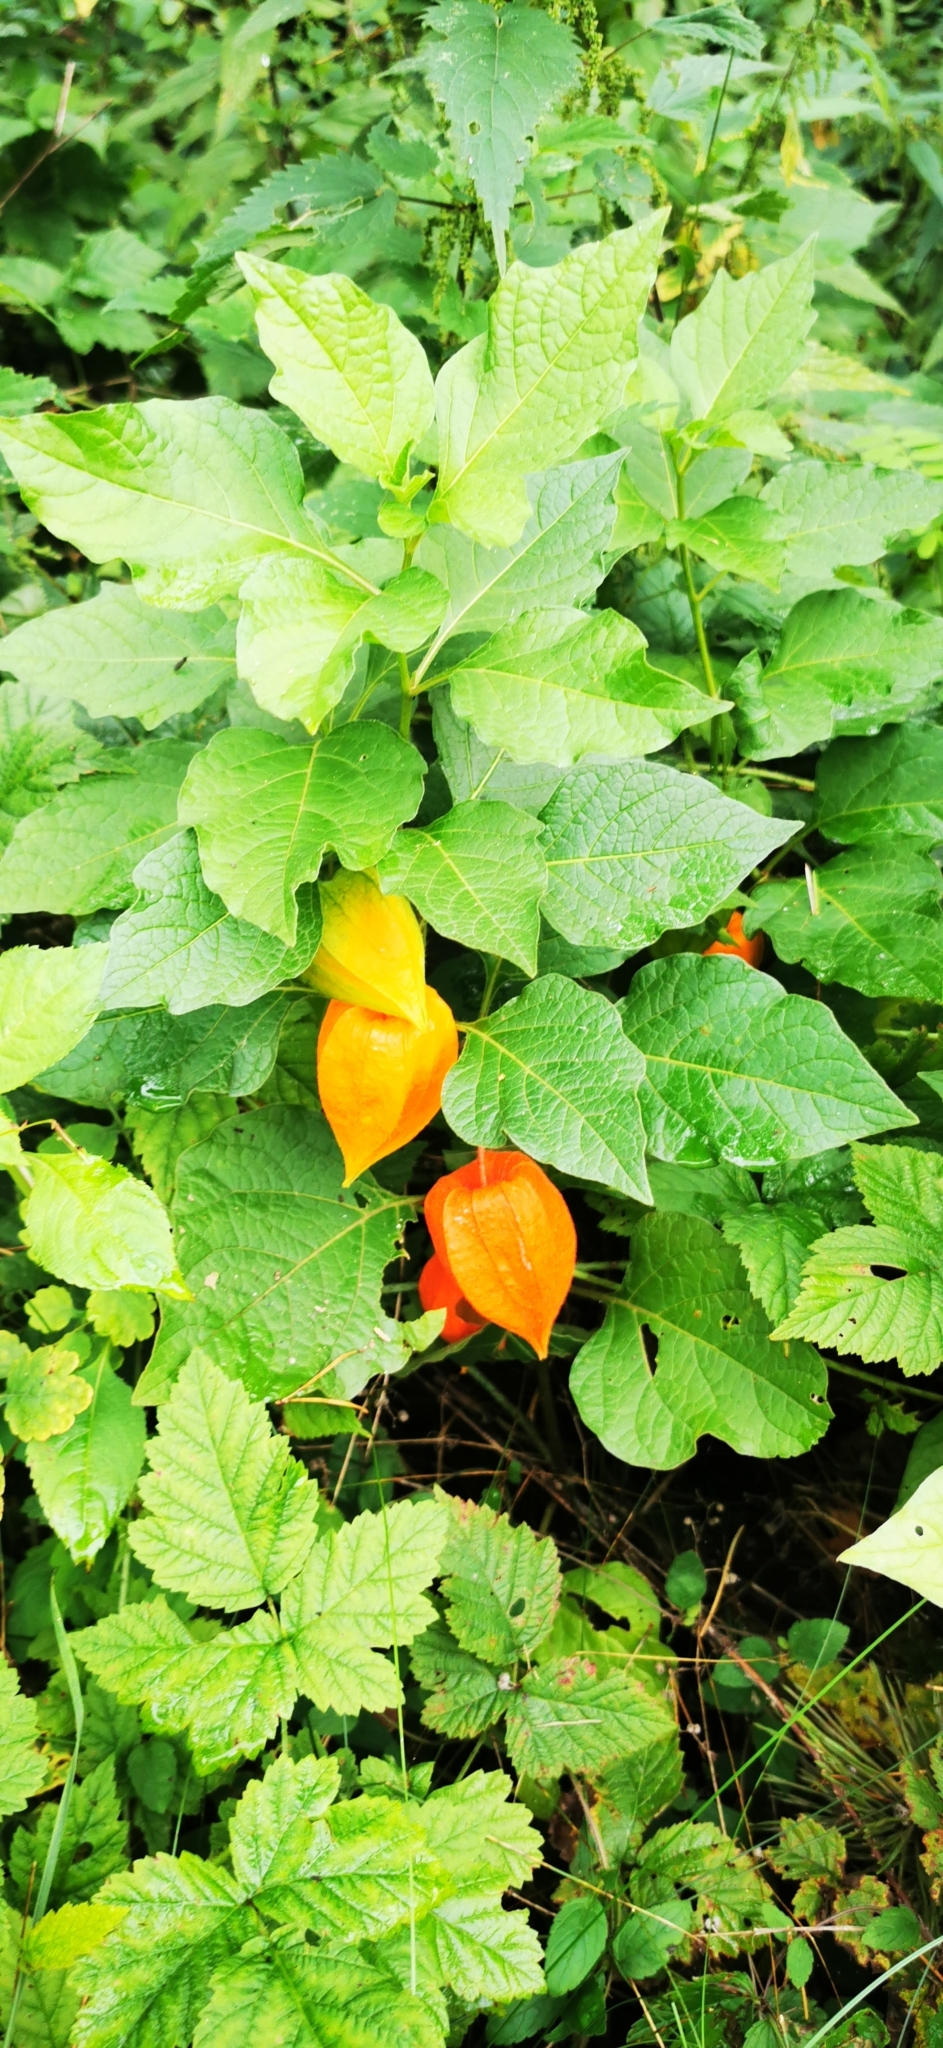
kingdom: Plantae
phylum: Tracheophyta
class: Magnoliopsida
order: Solanales
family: Solanaceae
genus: Alkekengi
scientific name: Alkekengi officinarum
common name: Japanese-lantern
